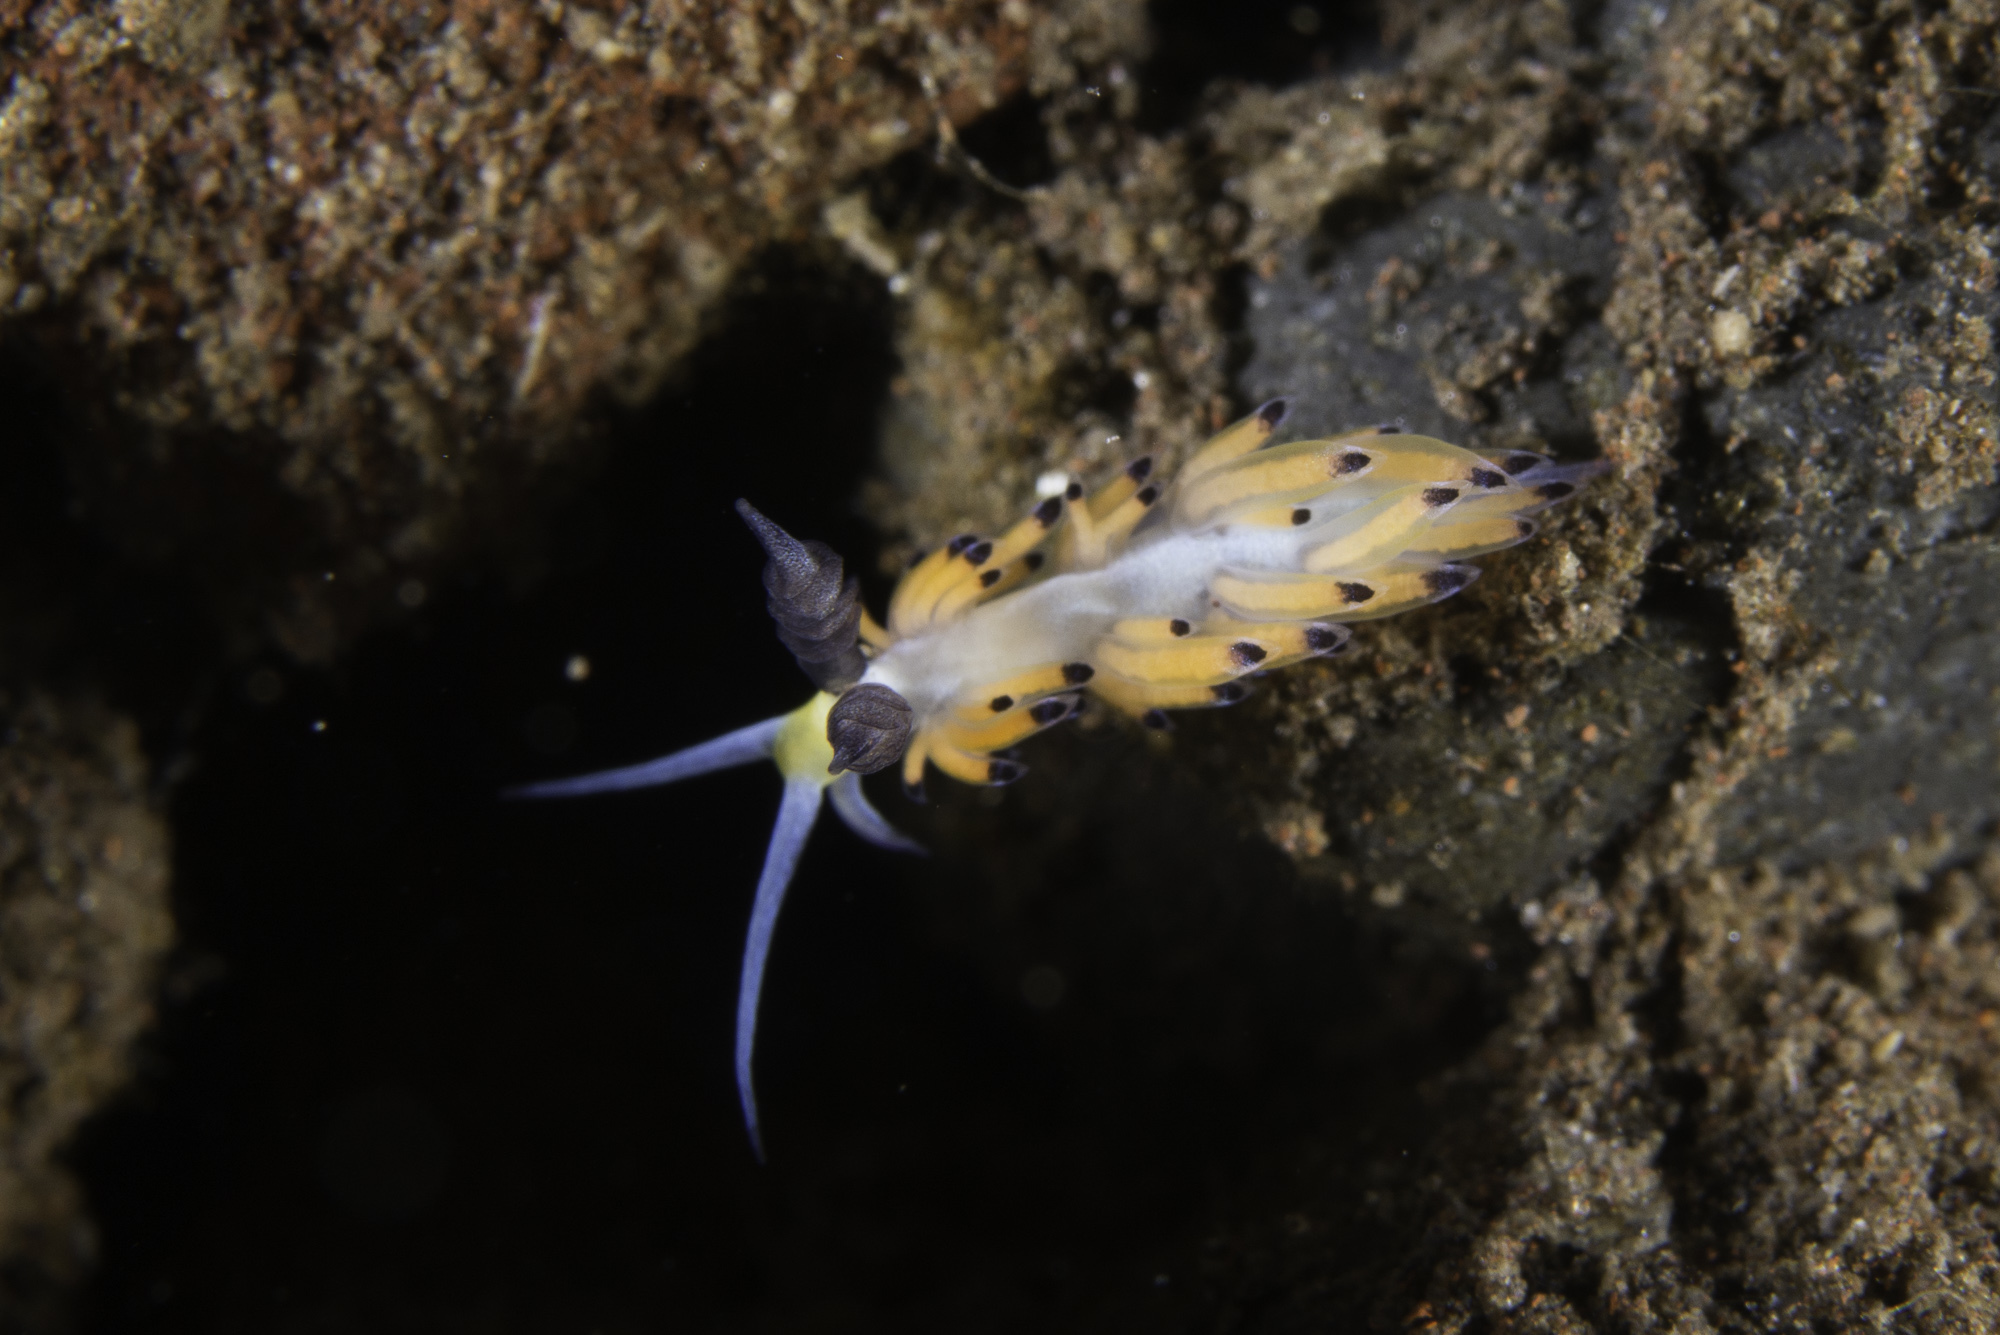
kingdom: Animalia
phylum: Mollusca
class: Gastropoda
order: Nudibranchia
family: Facelinidae
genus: Favorinus
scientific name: Favorinus tsuruganus
